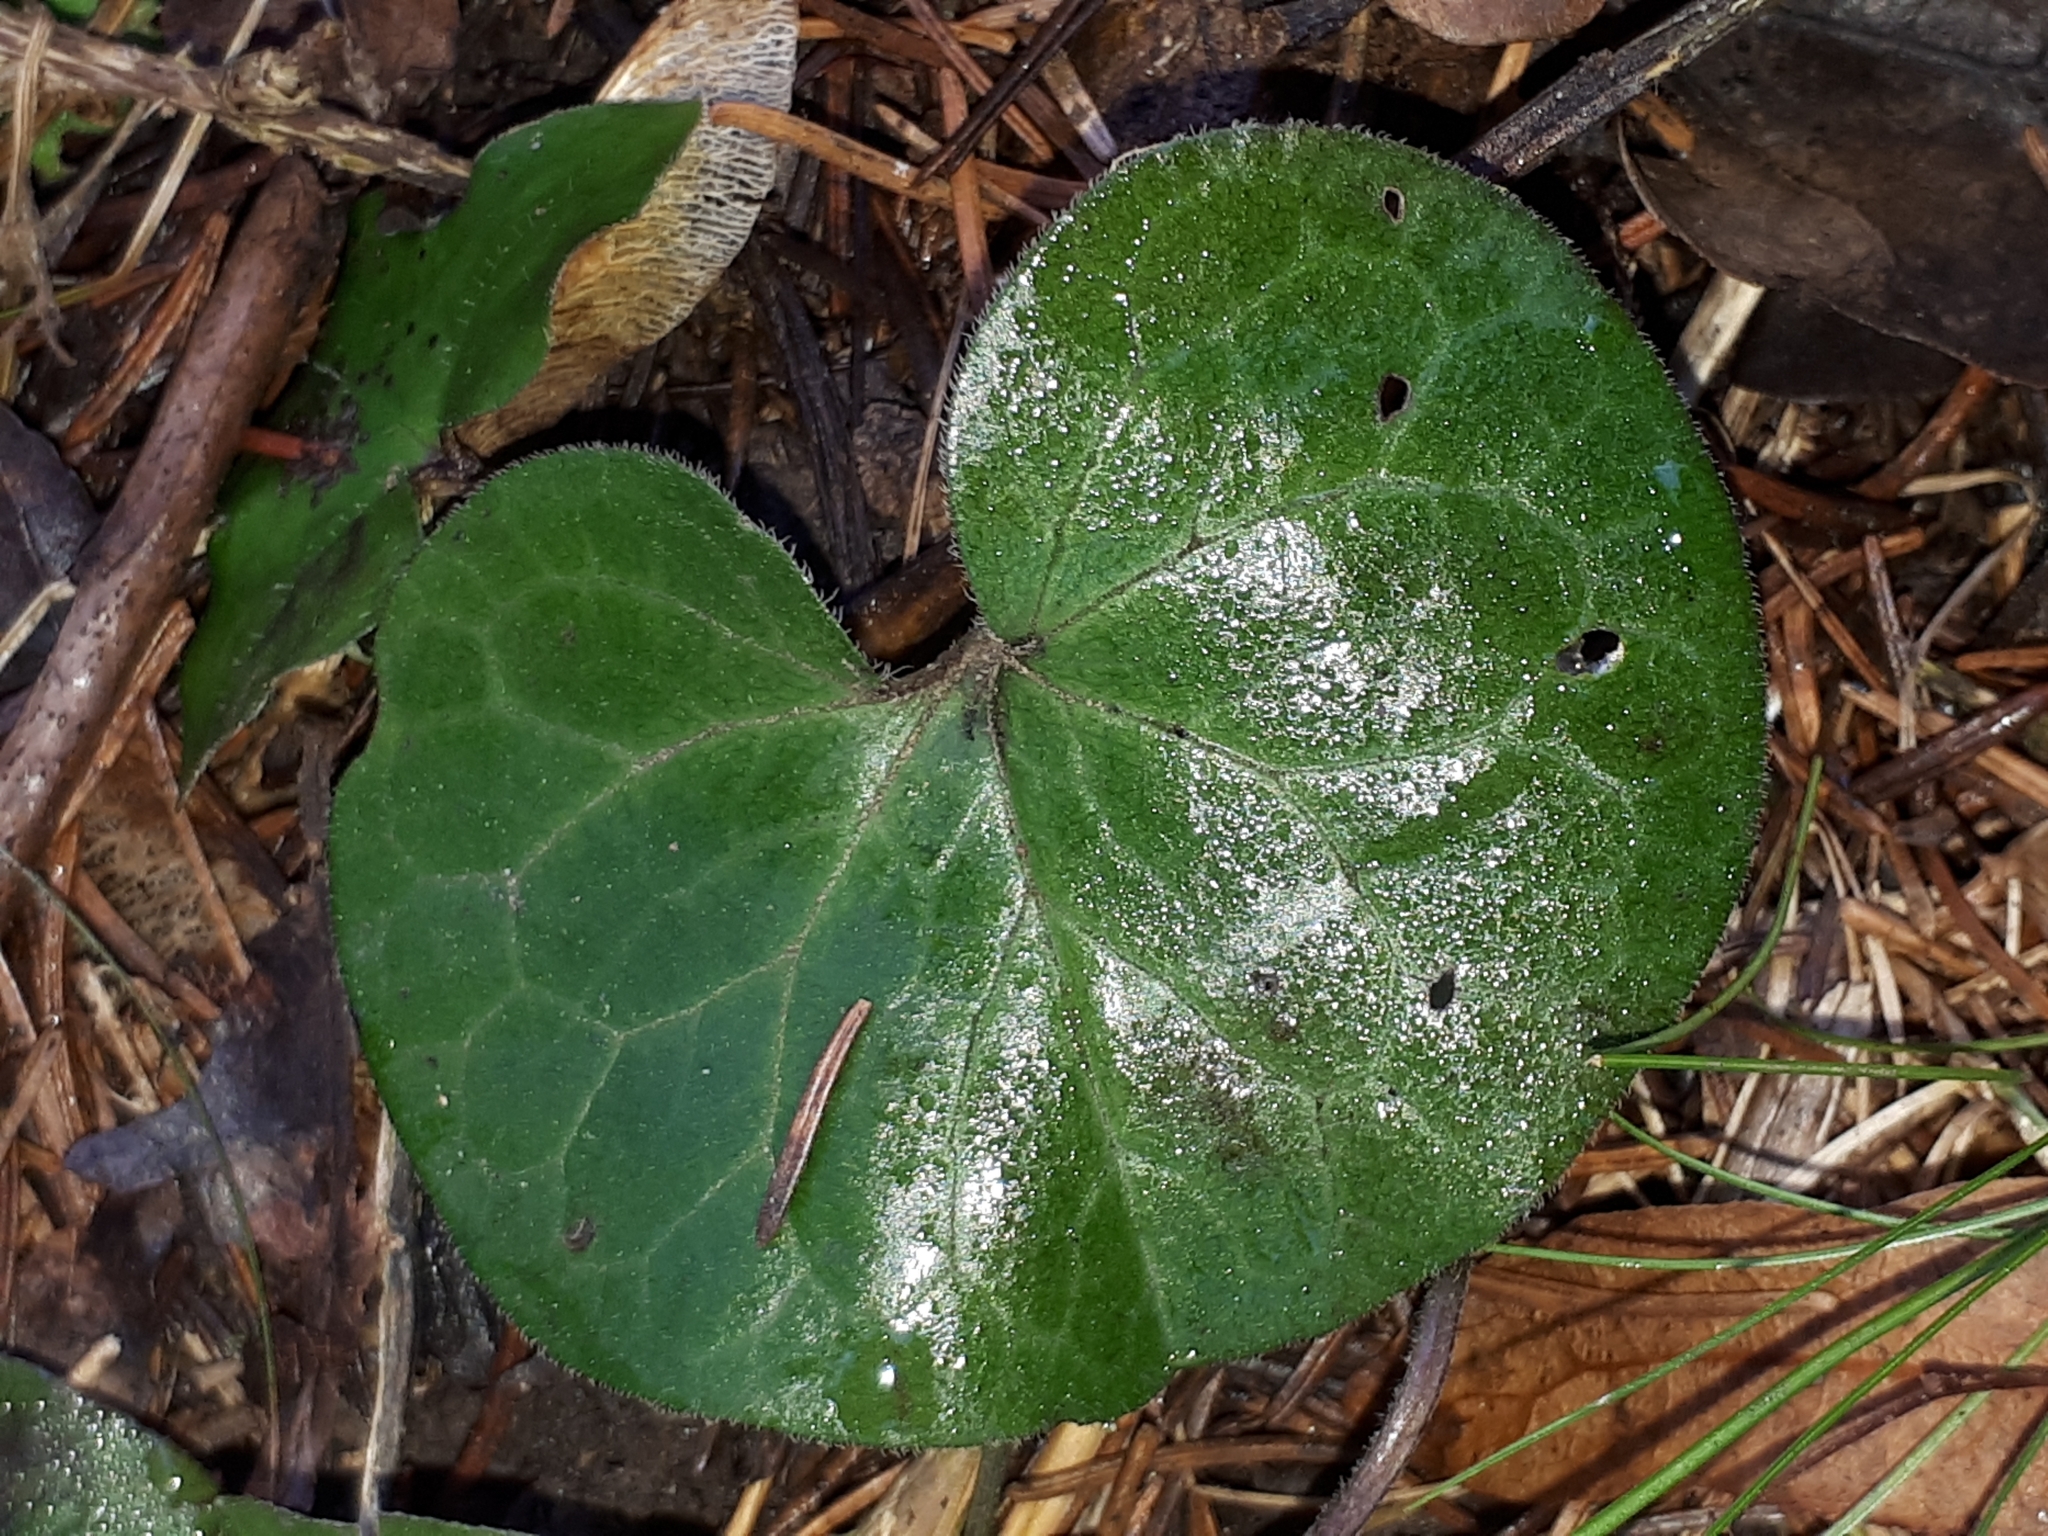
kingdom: Plantae
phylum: Tracheophyta
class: Magnoliopsida
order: Piperales
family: Aristolochiaceae
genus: Asarum
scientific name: Asarum europaeum
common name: Asarabacca
